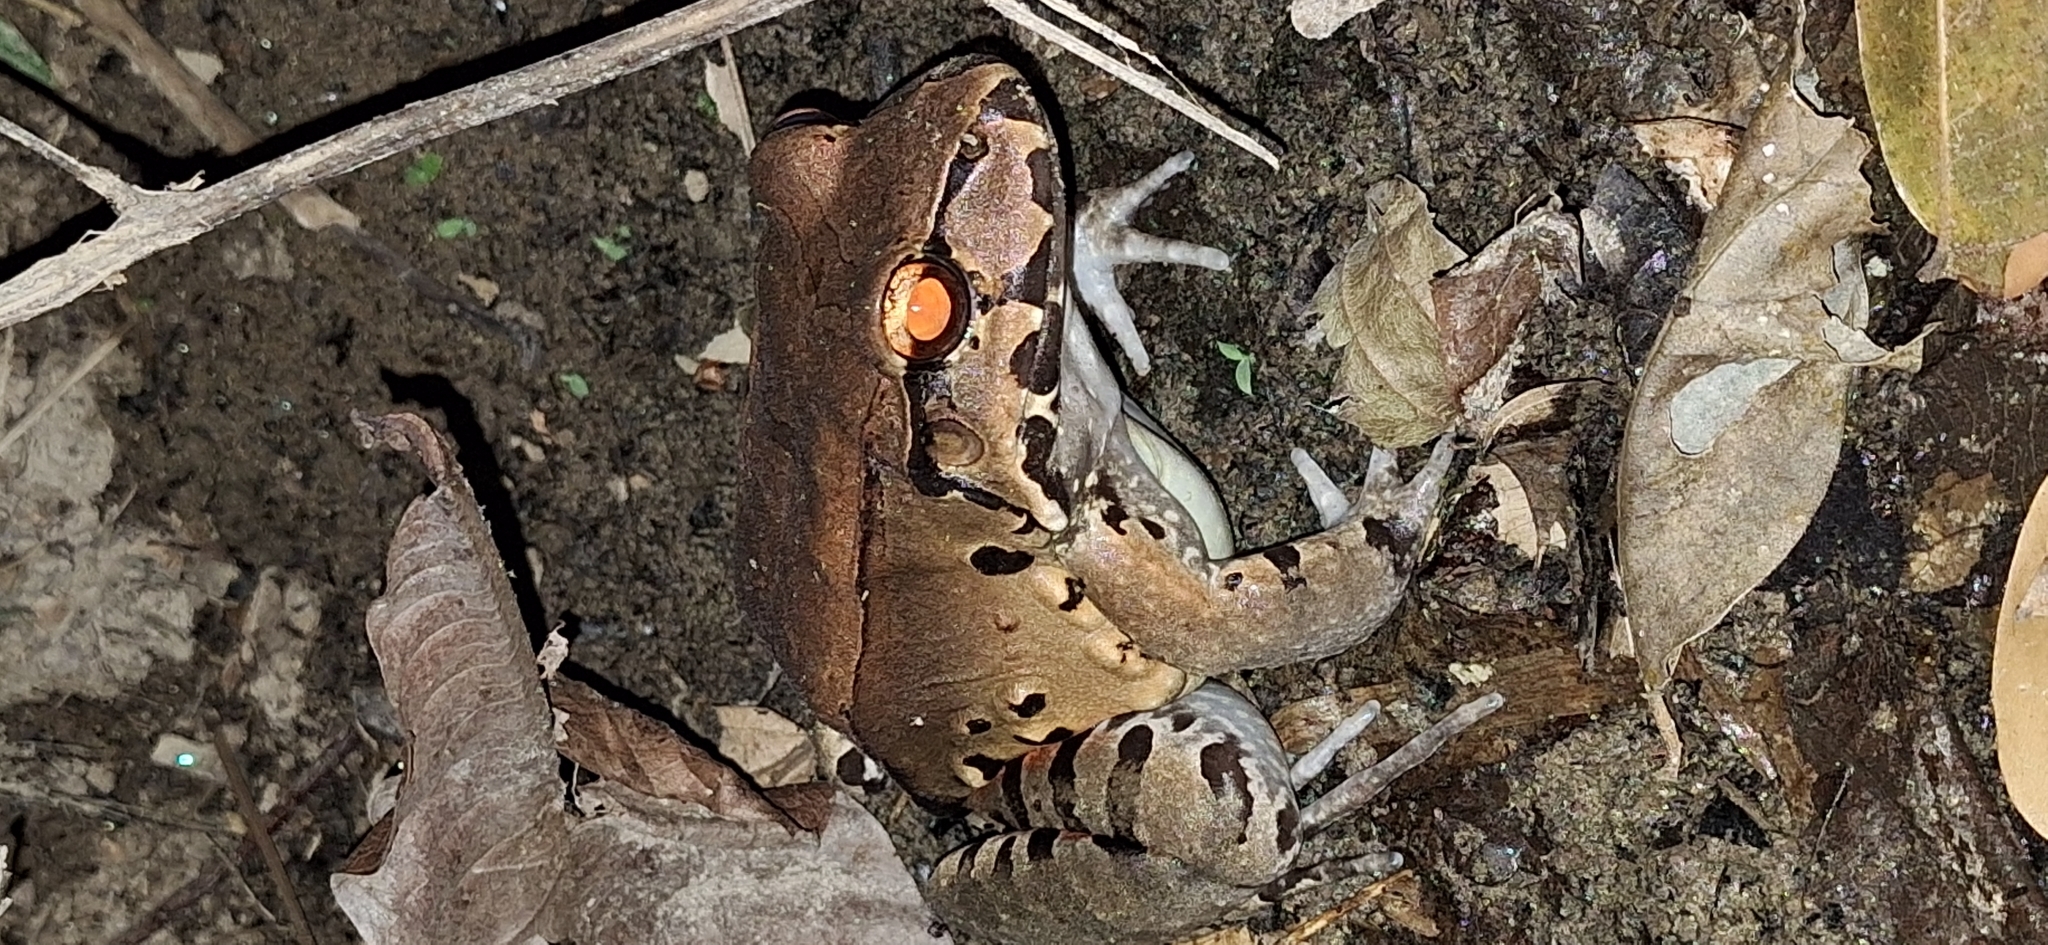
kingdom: Animalia
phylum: Chordata
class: Amphibia
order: Anura
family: Leptodactylidae
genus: Leptodactylus
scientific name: Leptodactylus savagei
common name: Savage's thin-toed frog
